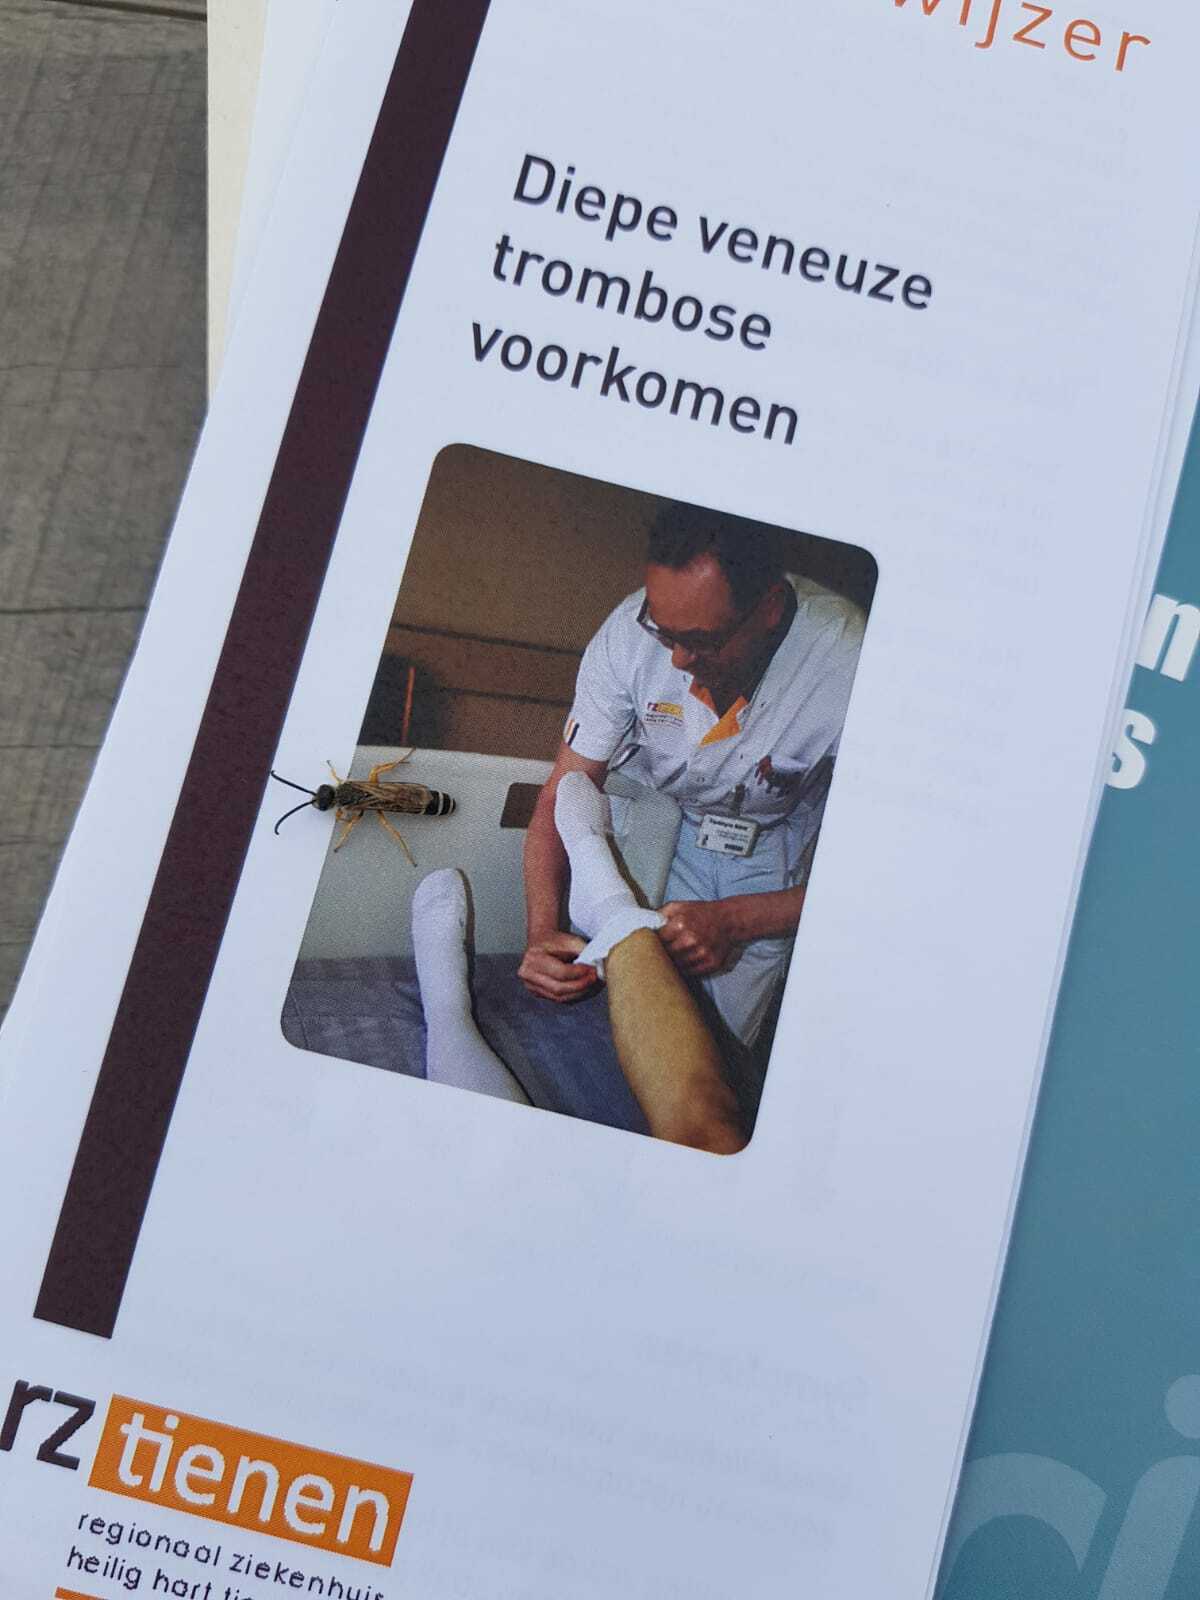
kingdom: Animalia
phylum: Arthropoda
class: Insecta
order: Hymenoptera
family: Halictidae
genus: Halictus
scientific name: Halictus scabiosae
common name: Great banded furrow bee
